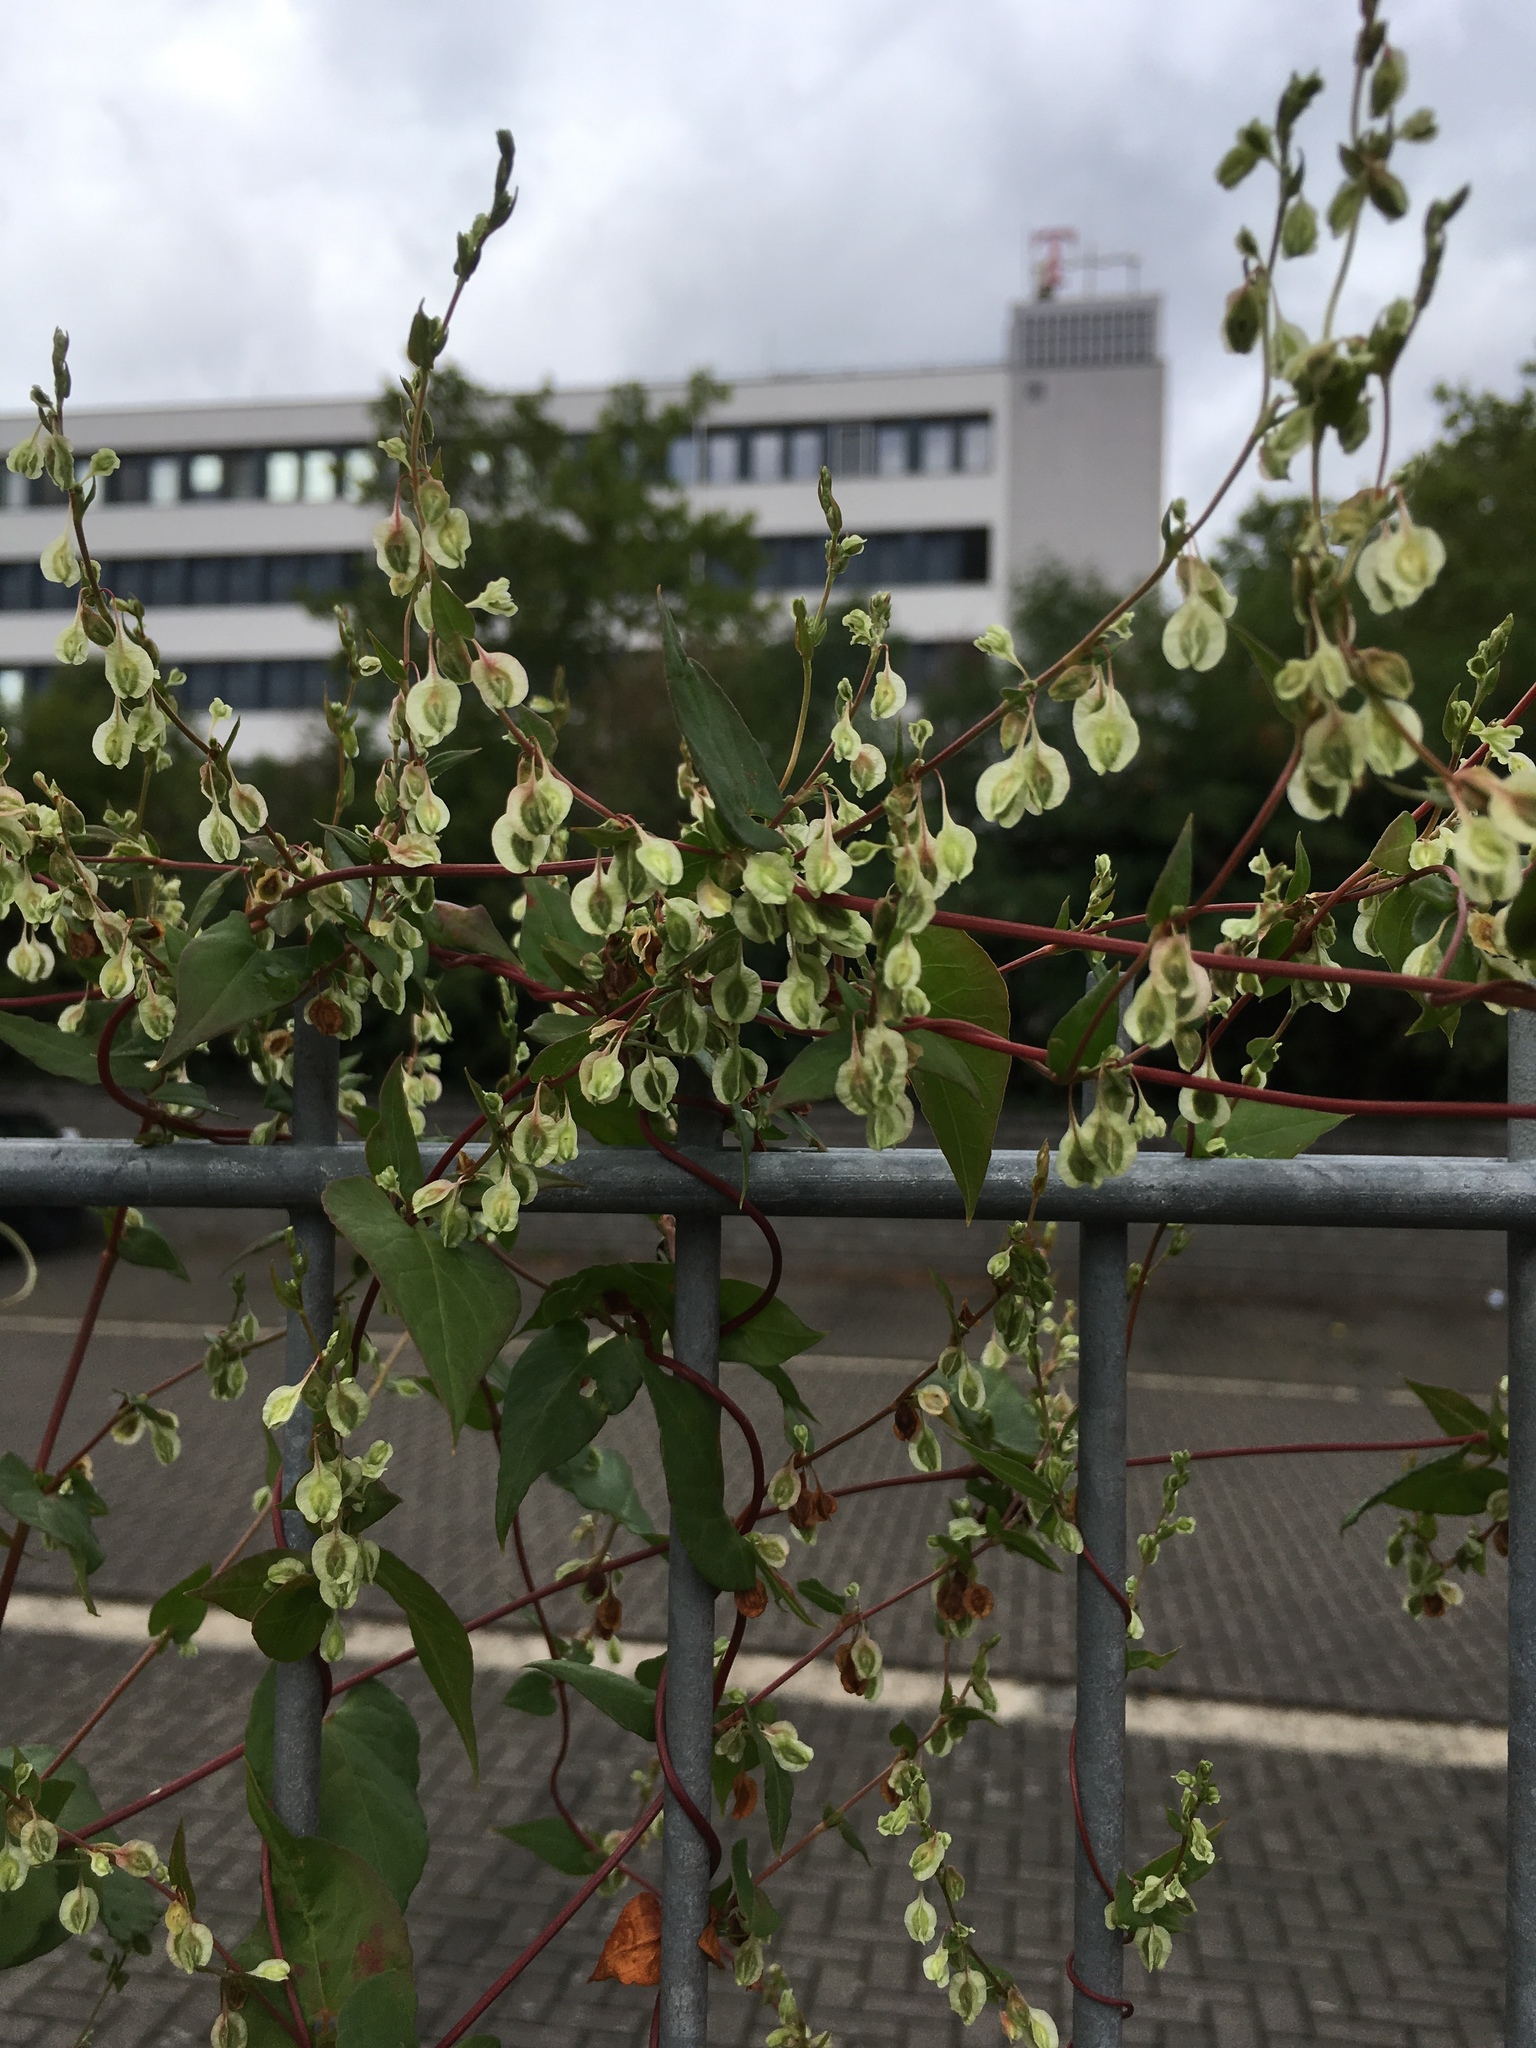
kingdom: Plantae
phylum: Tracheophyta
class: Magnoliopsida
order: Caryophyllales
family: Polygonaceae
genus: Fallopia
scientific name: Fallopia dumetorum
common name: Copse-bindweed
